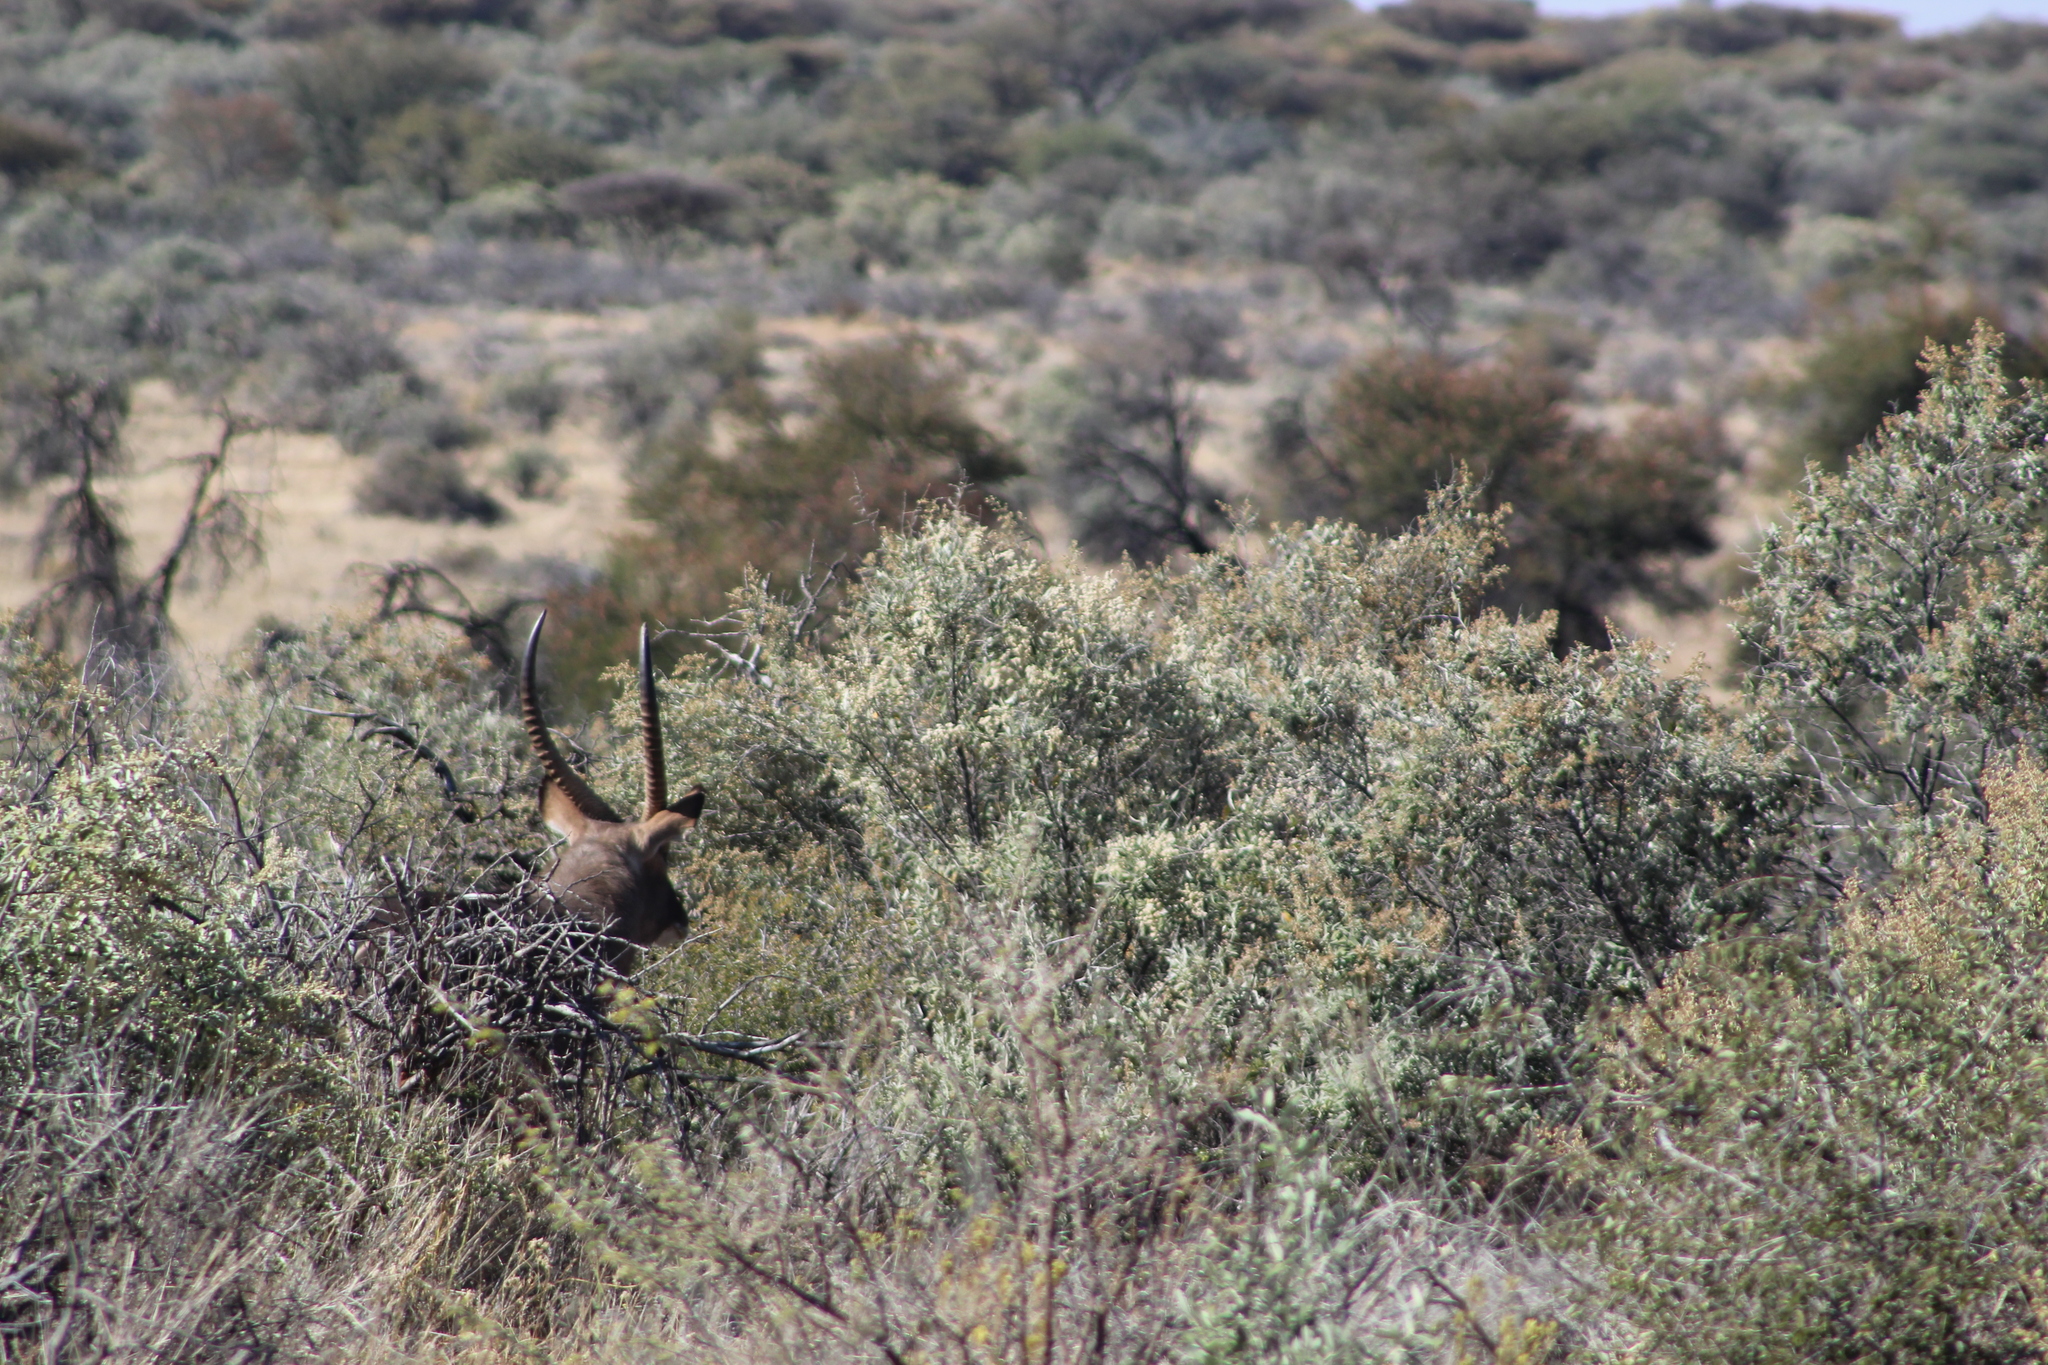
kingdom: Animalia
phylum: Chordata
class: Mammalia
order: Artiodactyla
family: Bovidae
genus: Kobus
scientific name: Kobus ellipsiprymnus
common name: Waterbuck
